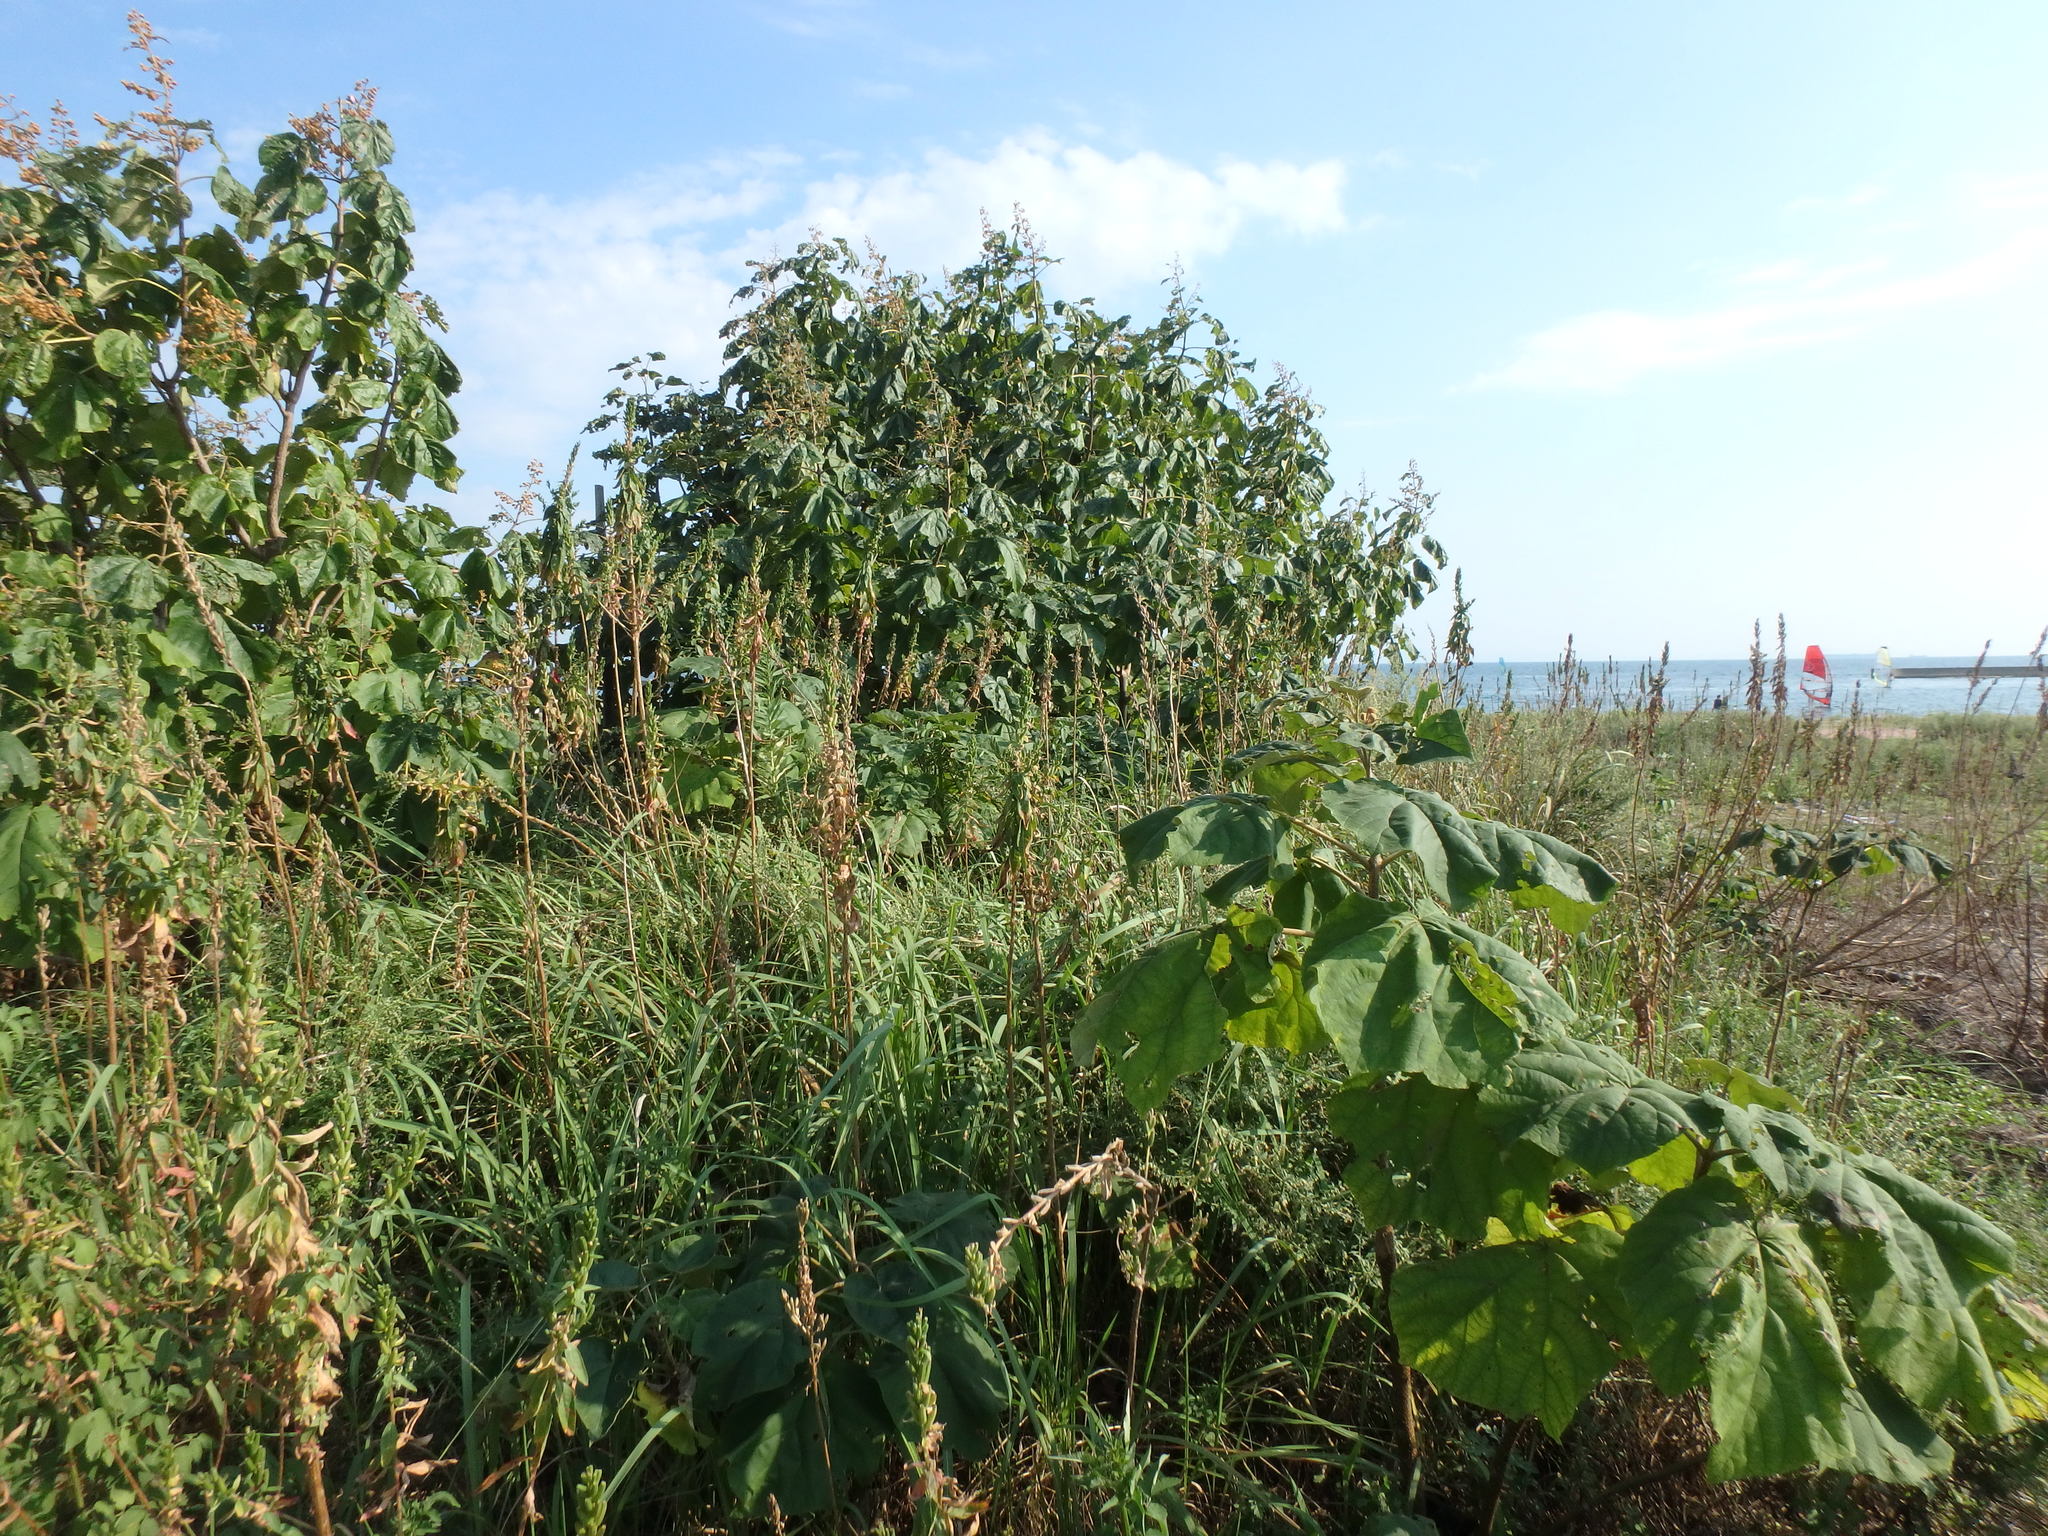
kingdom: Plantae
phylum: Tracheophyta
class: Magnoliopsida
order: Lamiales
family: Paulowniaceae
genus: Paulownia
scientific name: Paulownia tomentosa
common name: Foxglove-tree
